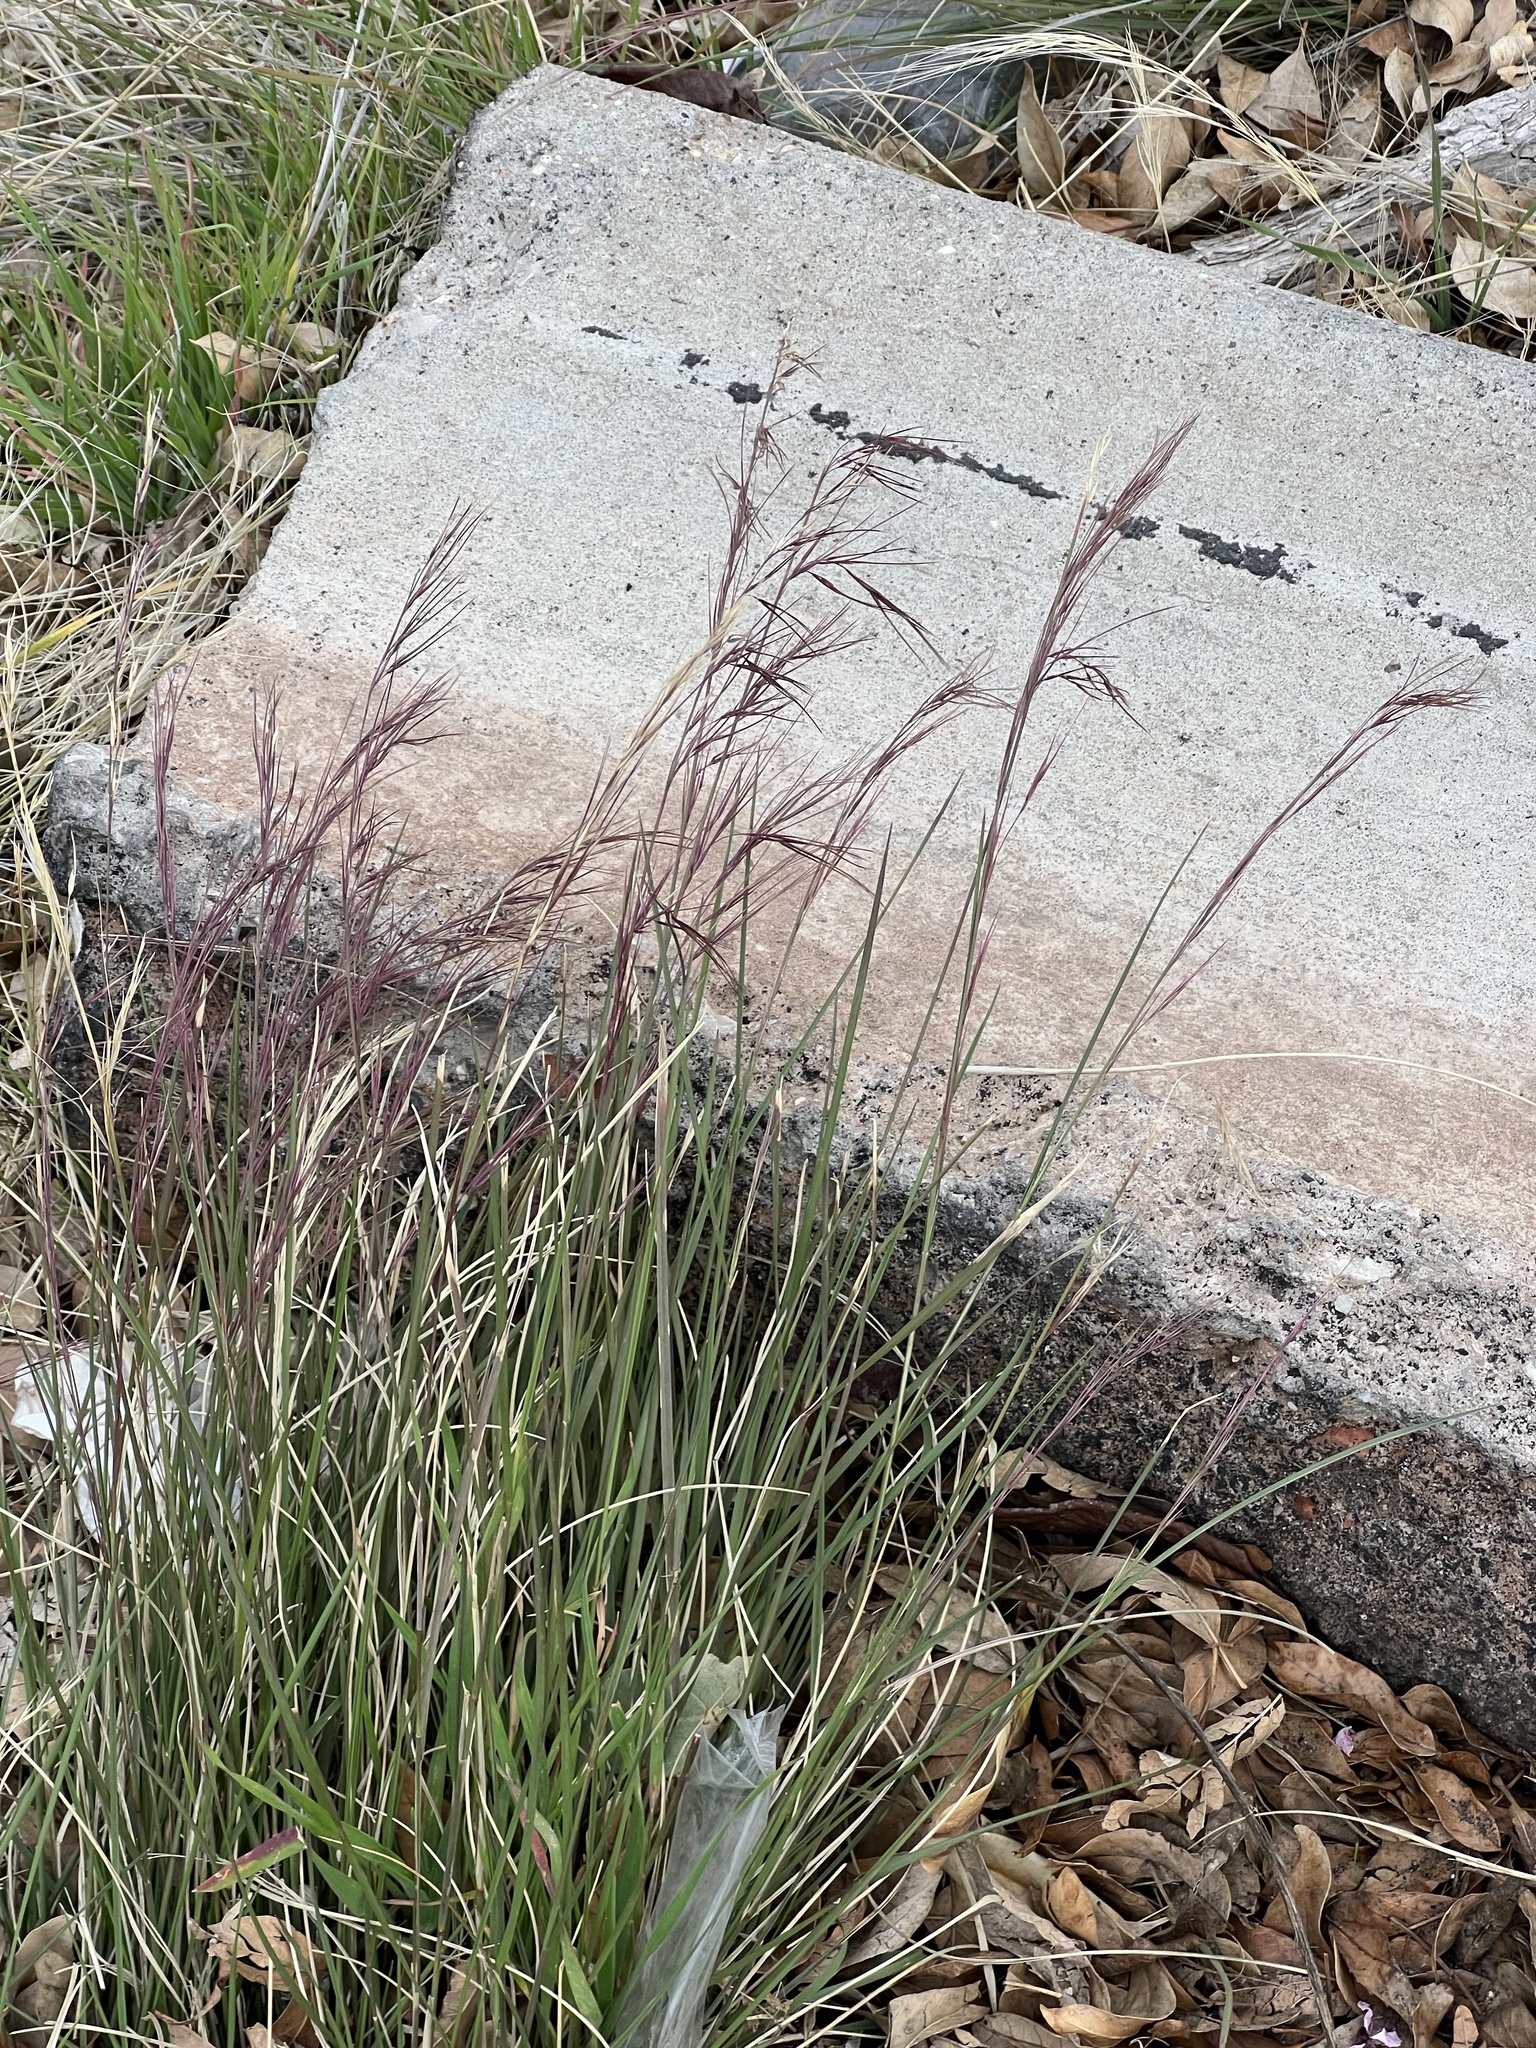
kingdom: Plantae
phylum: Tracheophyta
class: Liliopsida
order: Poales
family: Poaceae
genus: Aristida
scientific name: Aristida purpurea
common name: Purple threeawn
